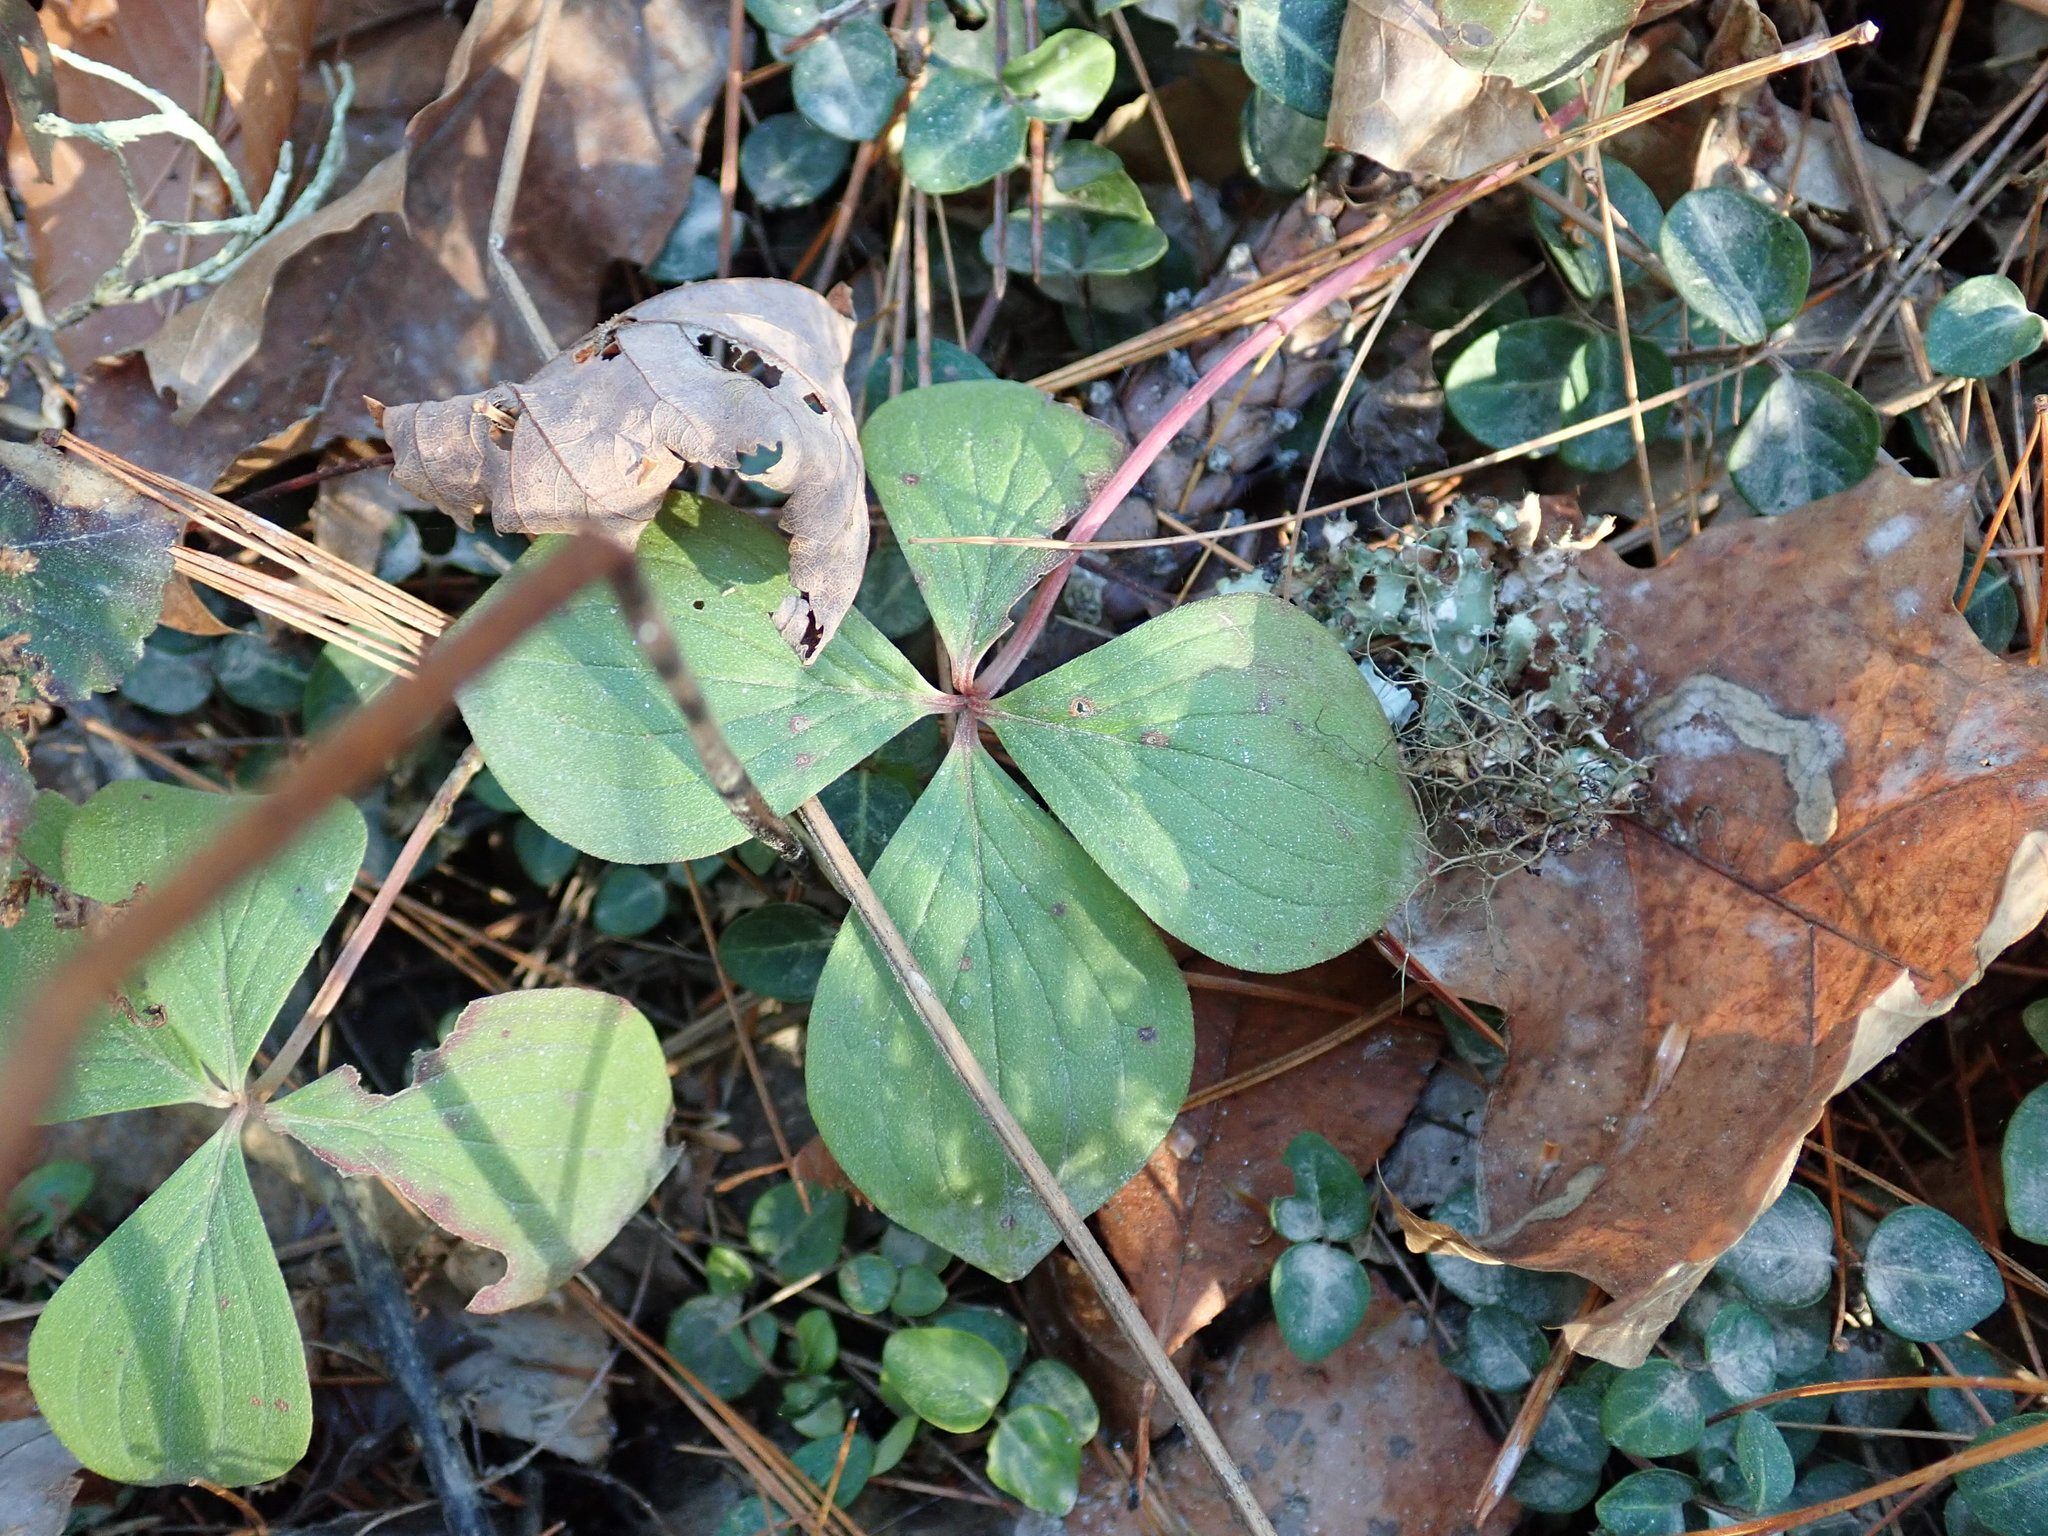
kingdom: Plantae
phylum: Tracheophyta
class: Magnoliopsida
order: Cornales
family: Cornaceae
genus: Cornus
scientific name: Cornus canadensis
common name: Creeping dogwood
